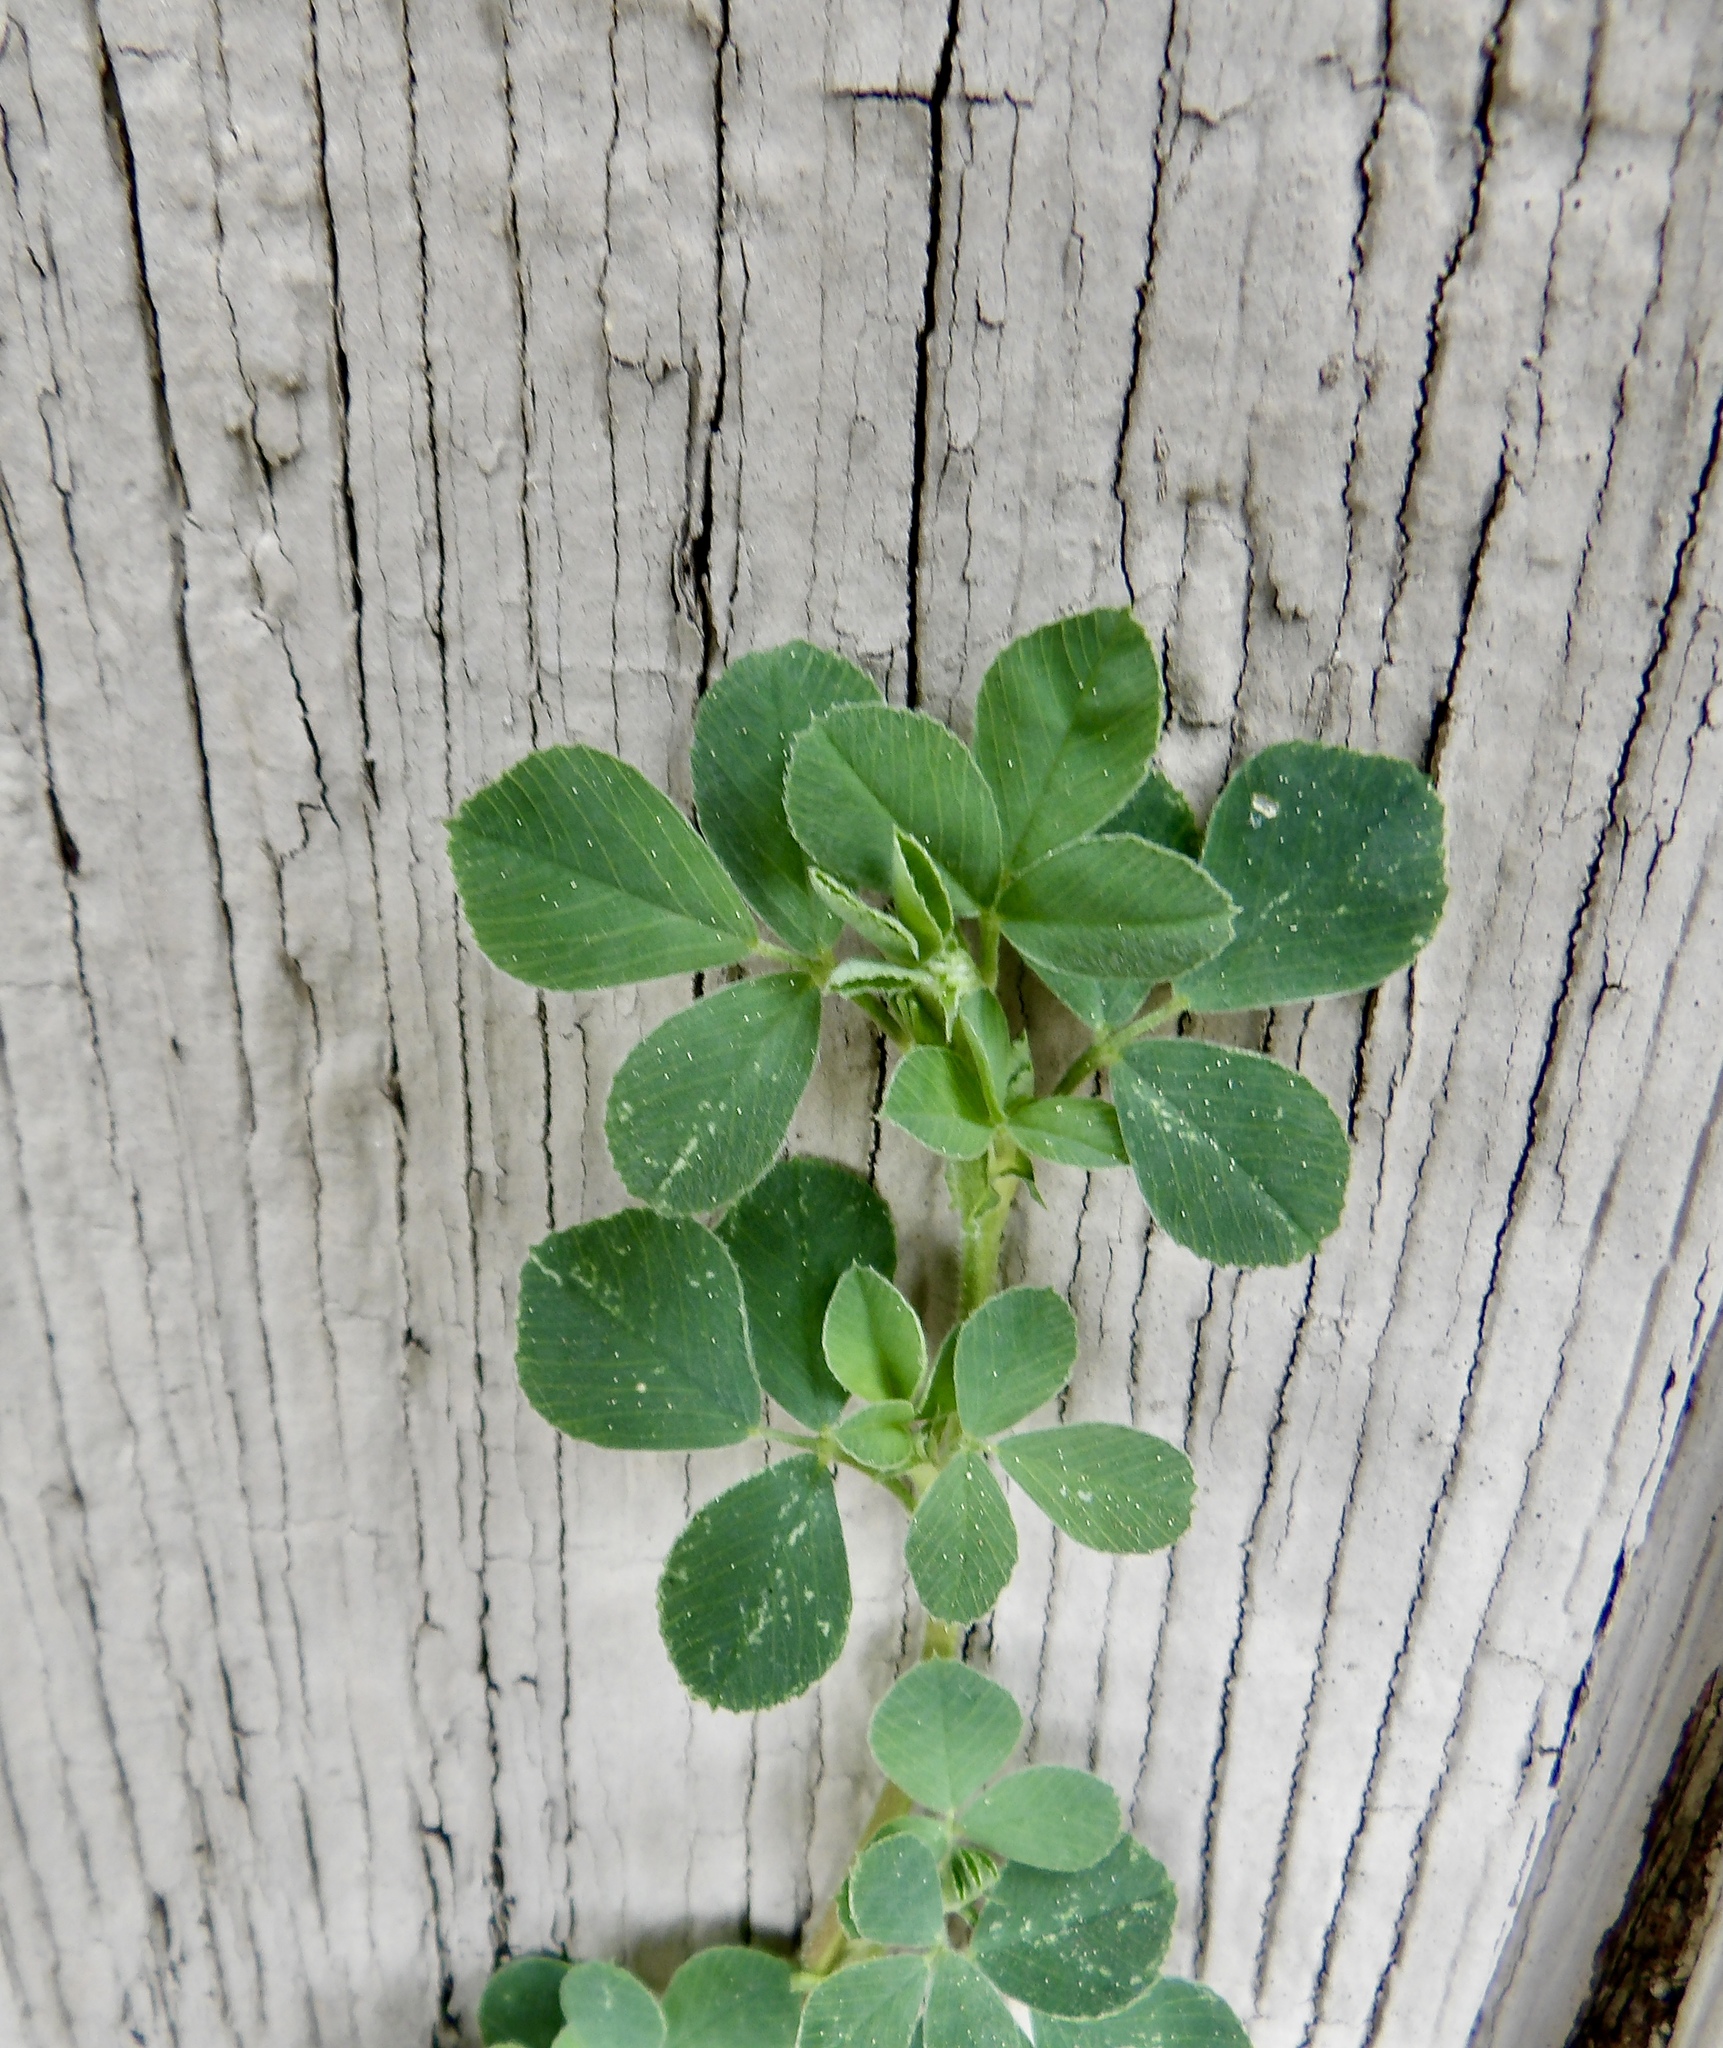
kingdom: Plantae
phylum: Tracheophyta
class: Magnoliopsida
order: Fabales
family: Fabaceae
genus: Medicago
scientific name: Medicago lupulina
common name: Black medick
